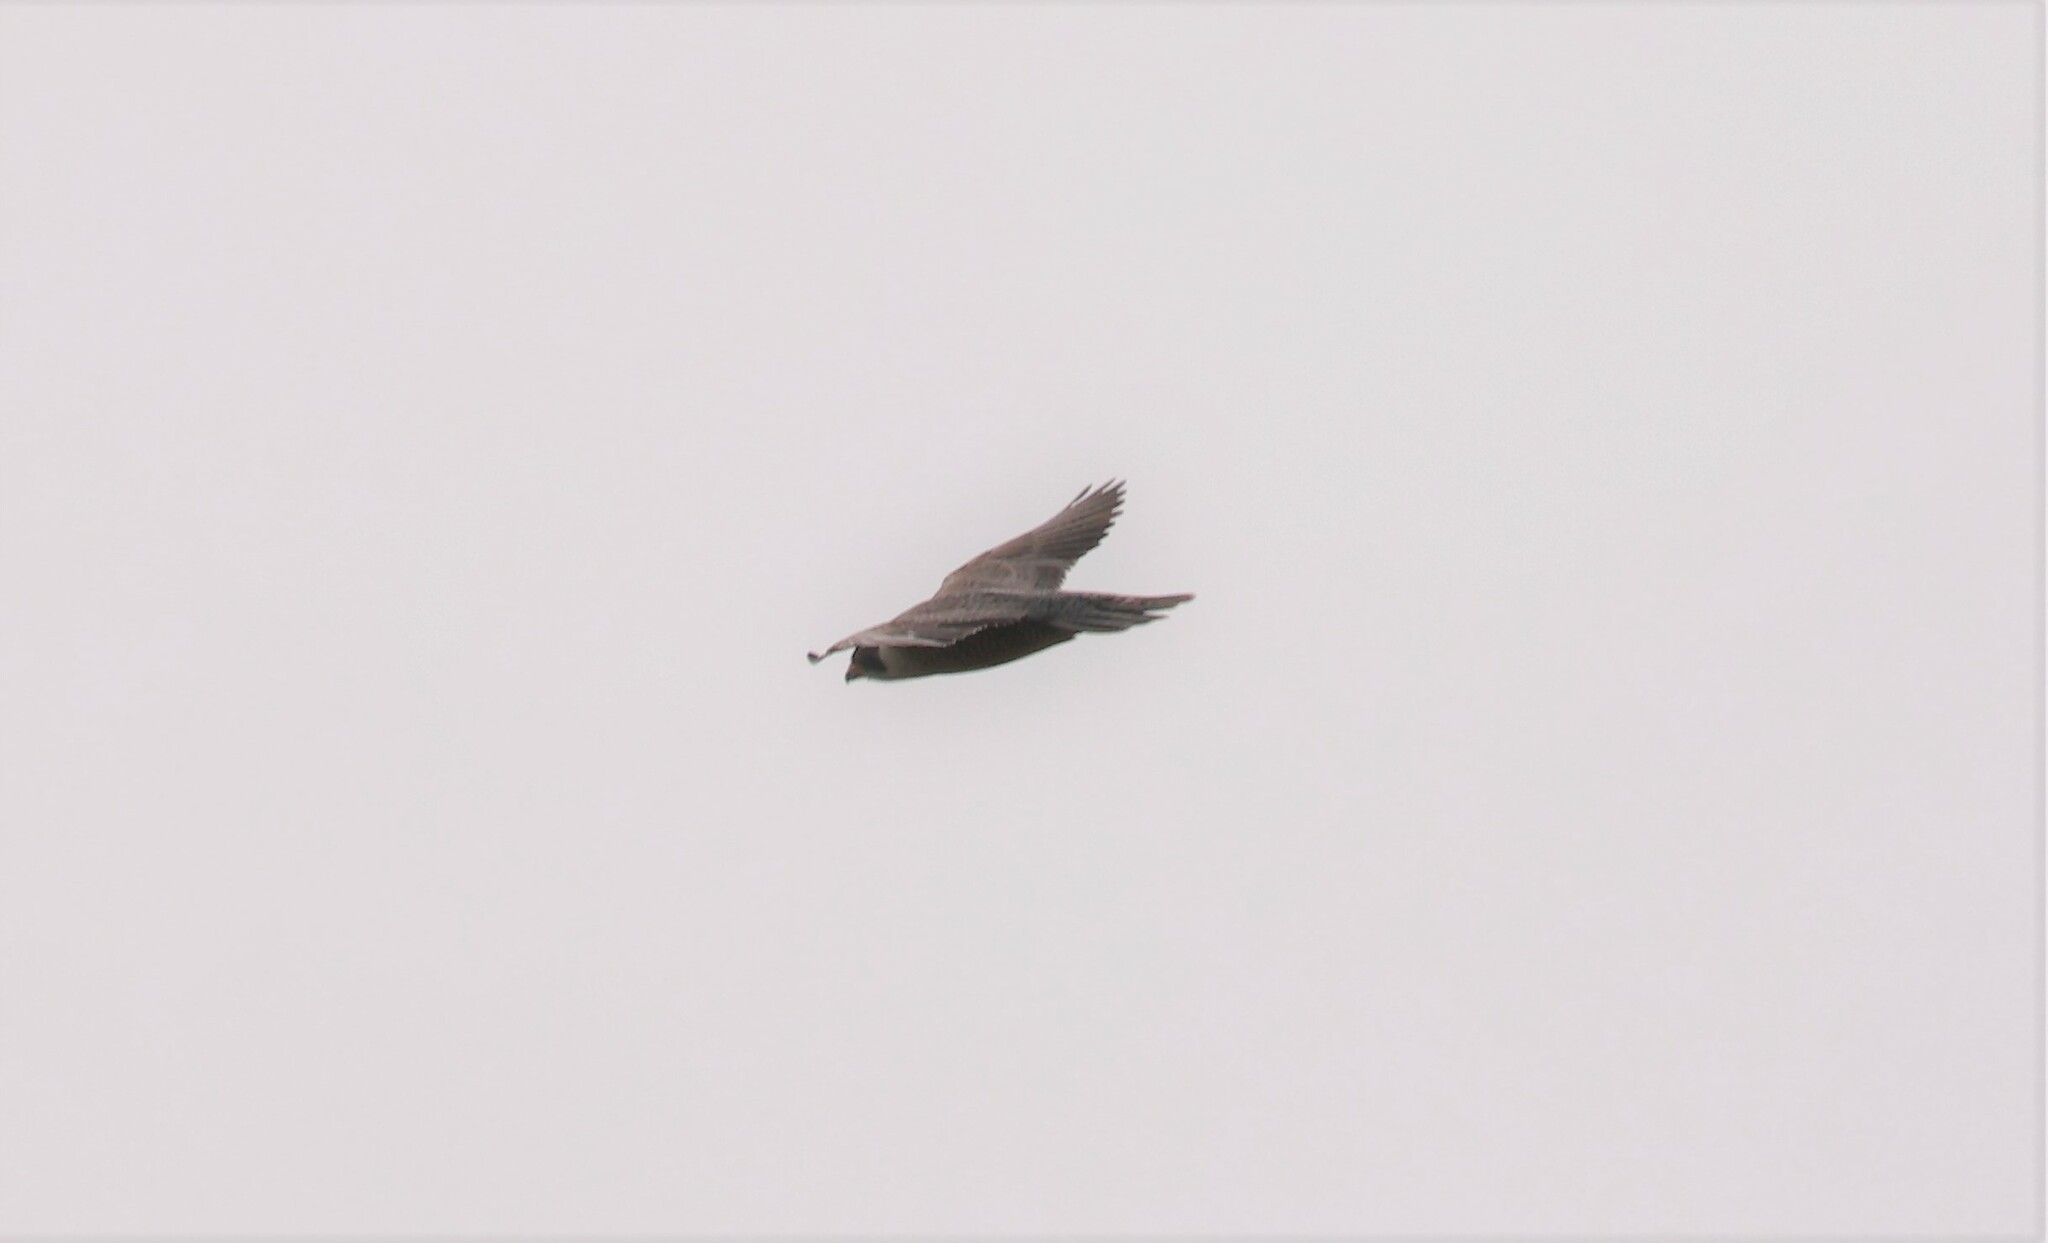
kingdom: Animalia
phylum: Chordata
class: Aves
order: Falconiformes
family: Falconidae
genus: Falco
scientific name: Falco peregrinus
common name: Peregrine falcon
